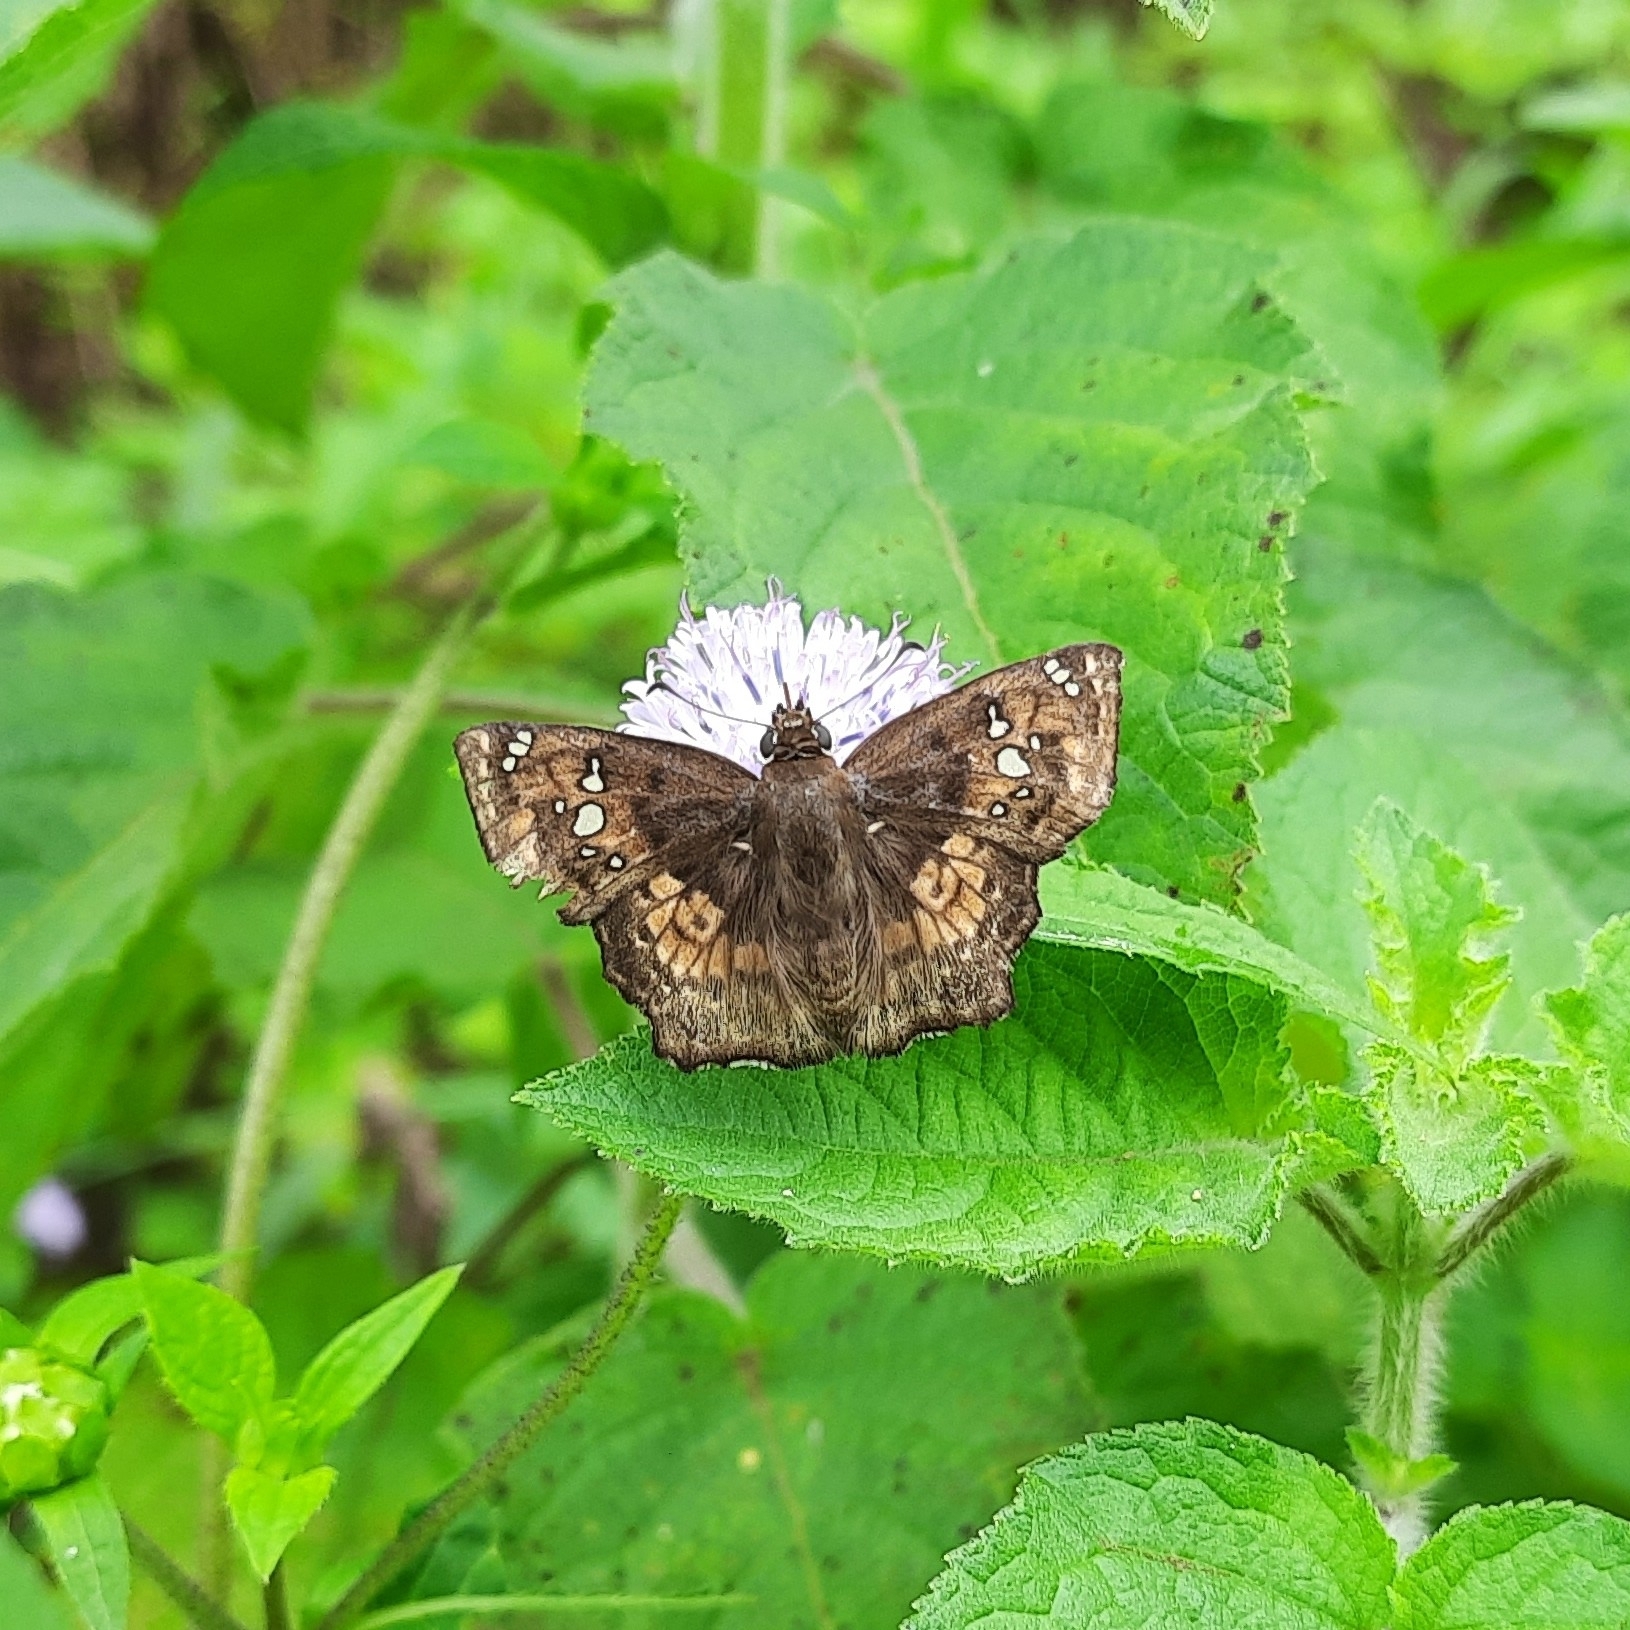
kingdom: Animalia
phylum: Arthropoda
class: Insecta
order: Lepidoptera
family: Hesperiidae
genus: Caprona
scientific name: Caprona ransonnettii
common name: Golden angle
